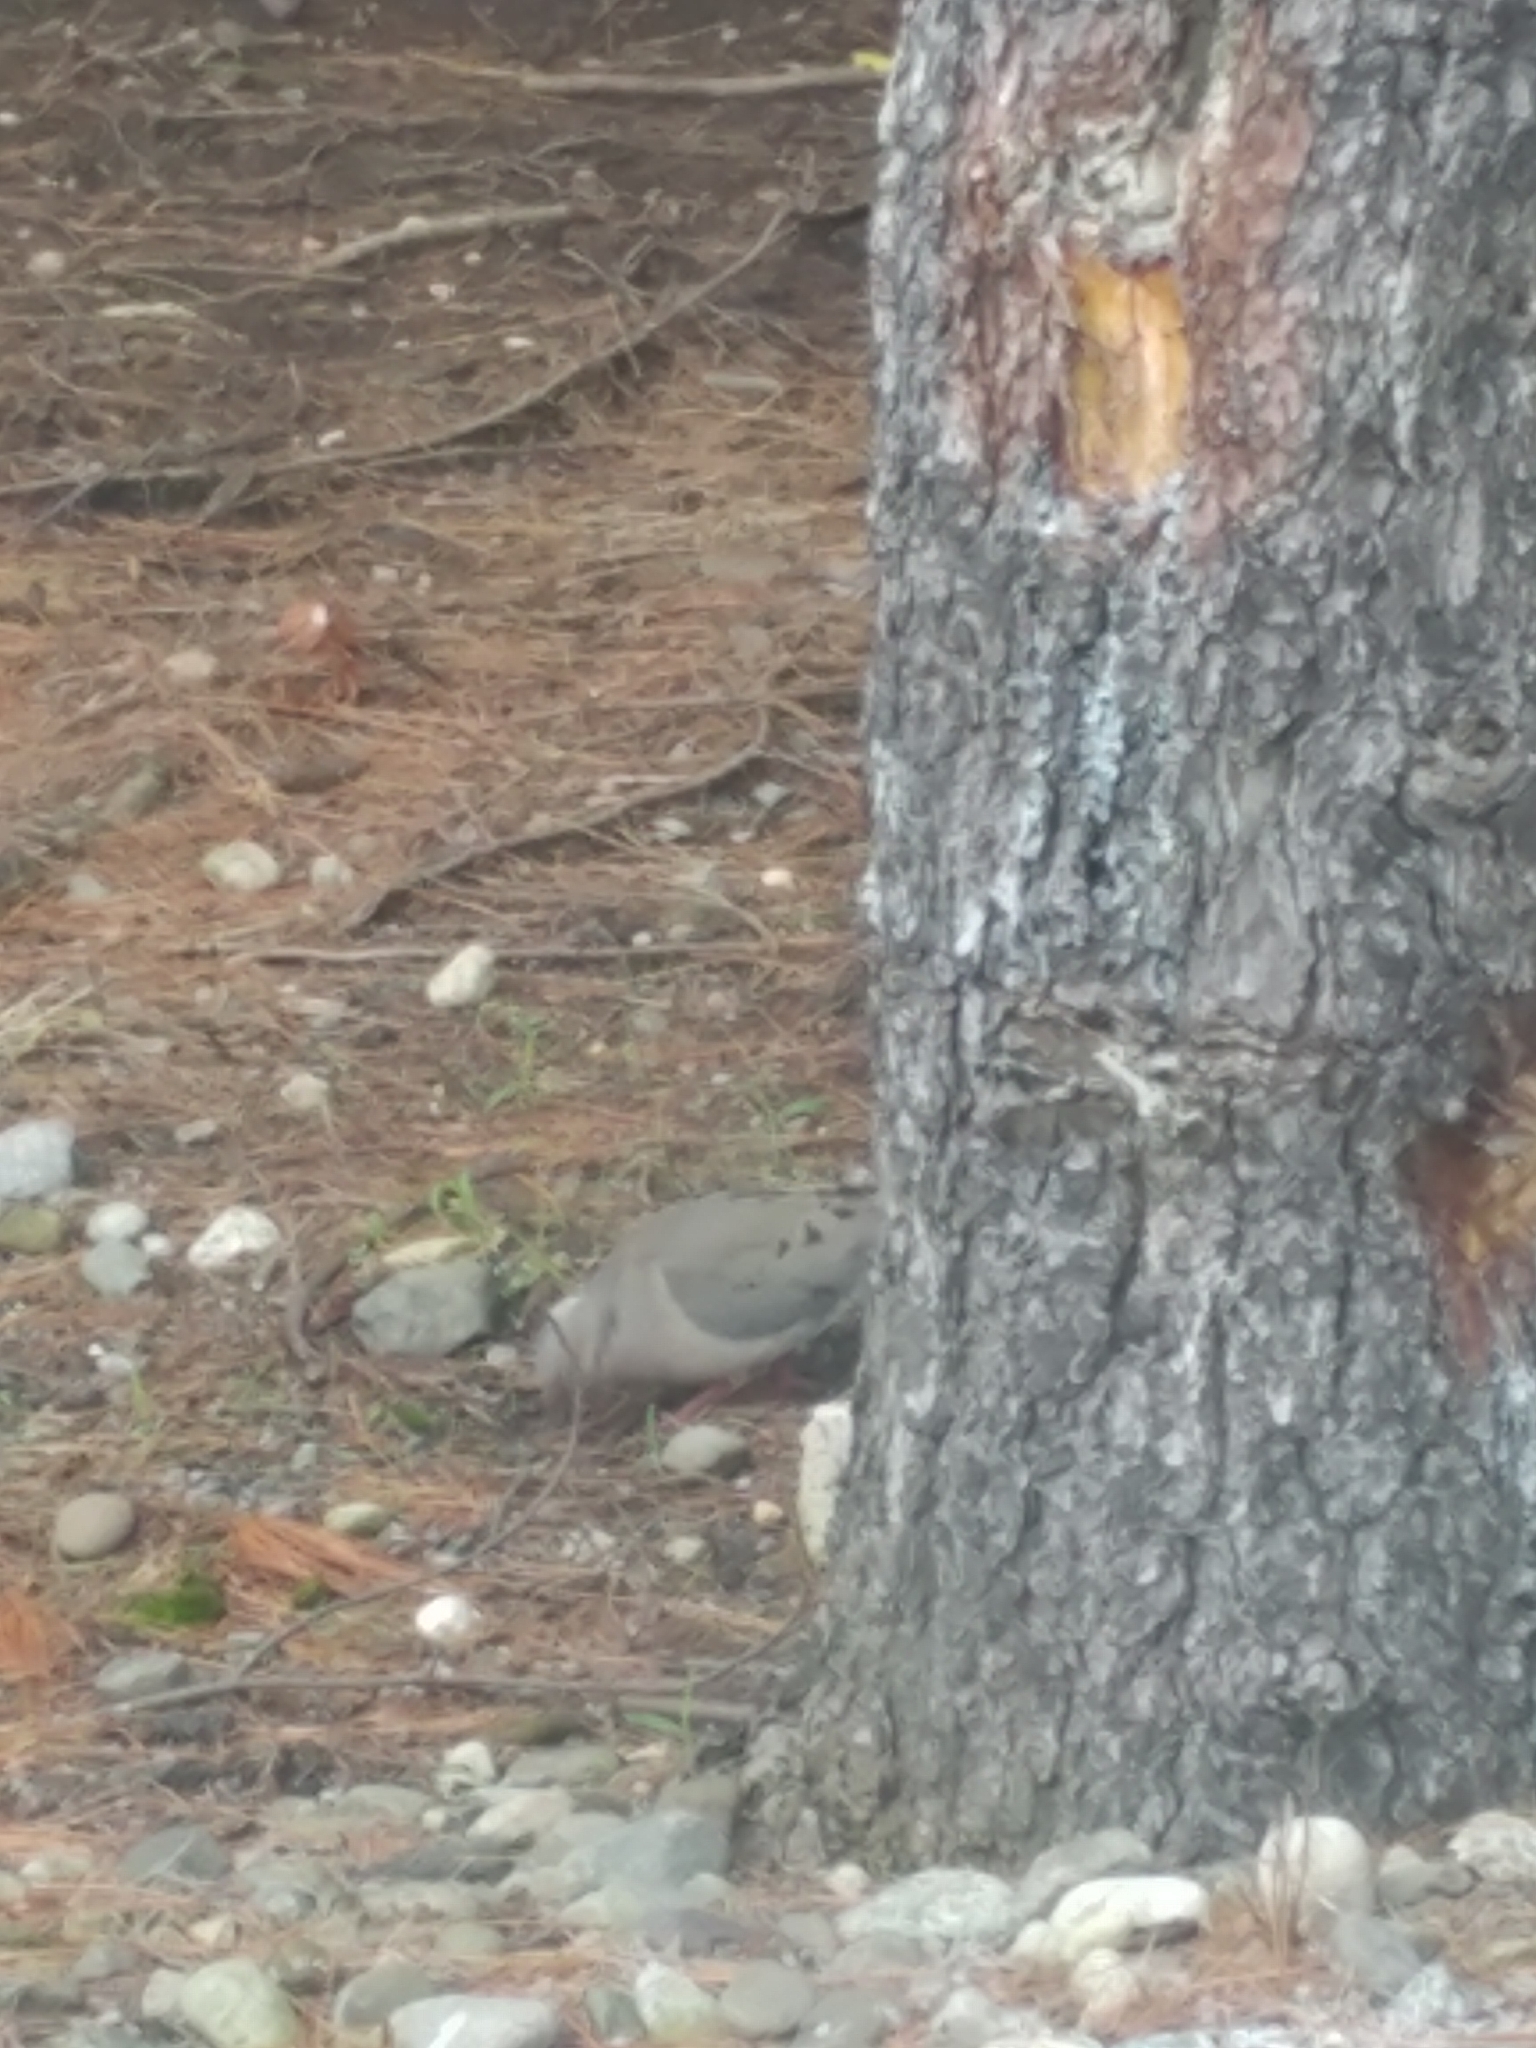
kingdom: Animalia
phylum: Chordata
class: Aves
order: Columbiformes
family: Columbidae
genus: Zenaida
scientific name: Zenaida macroura
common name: Mourning dove
